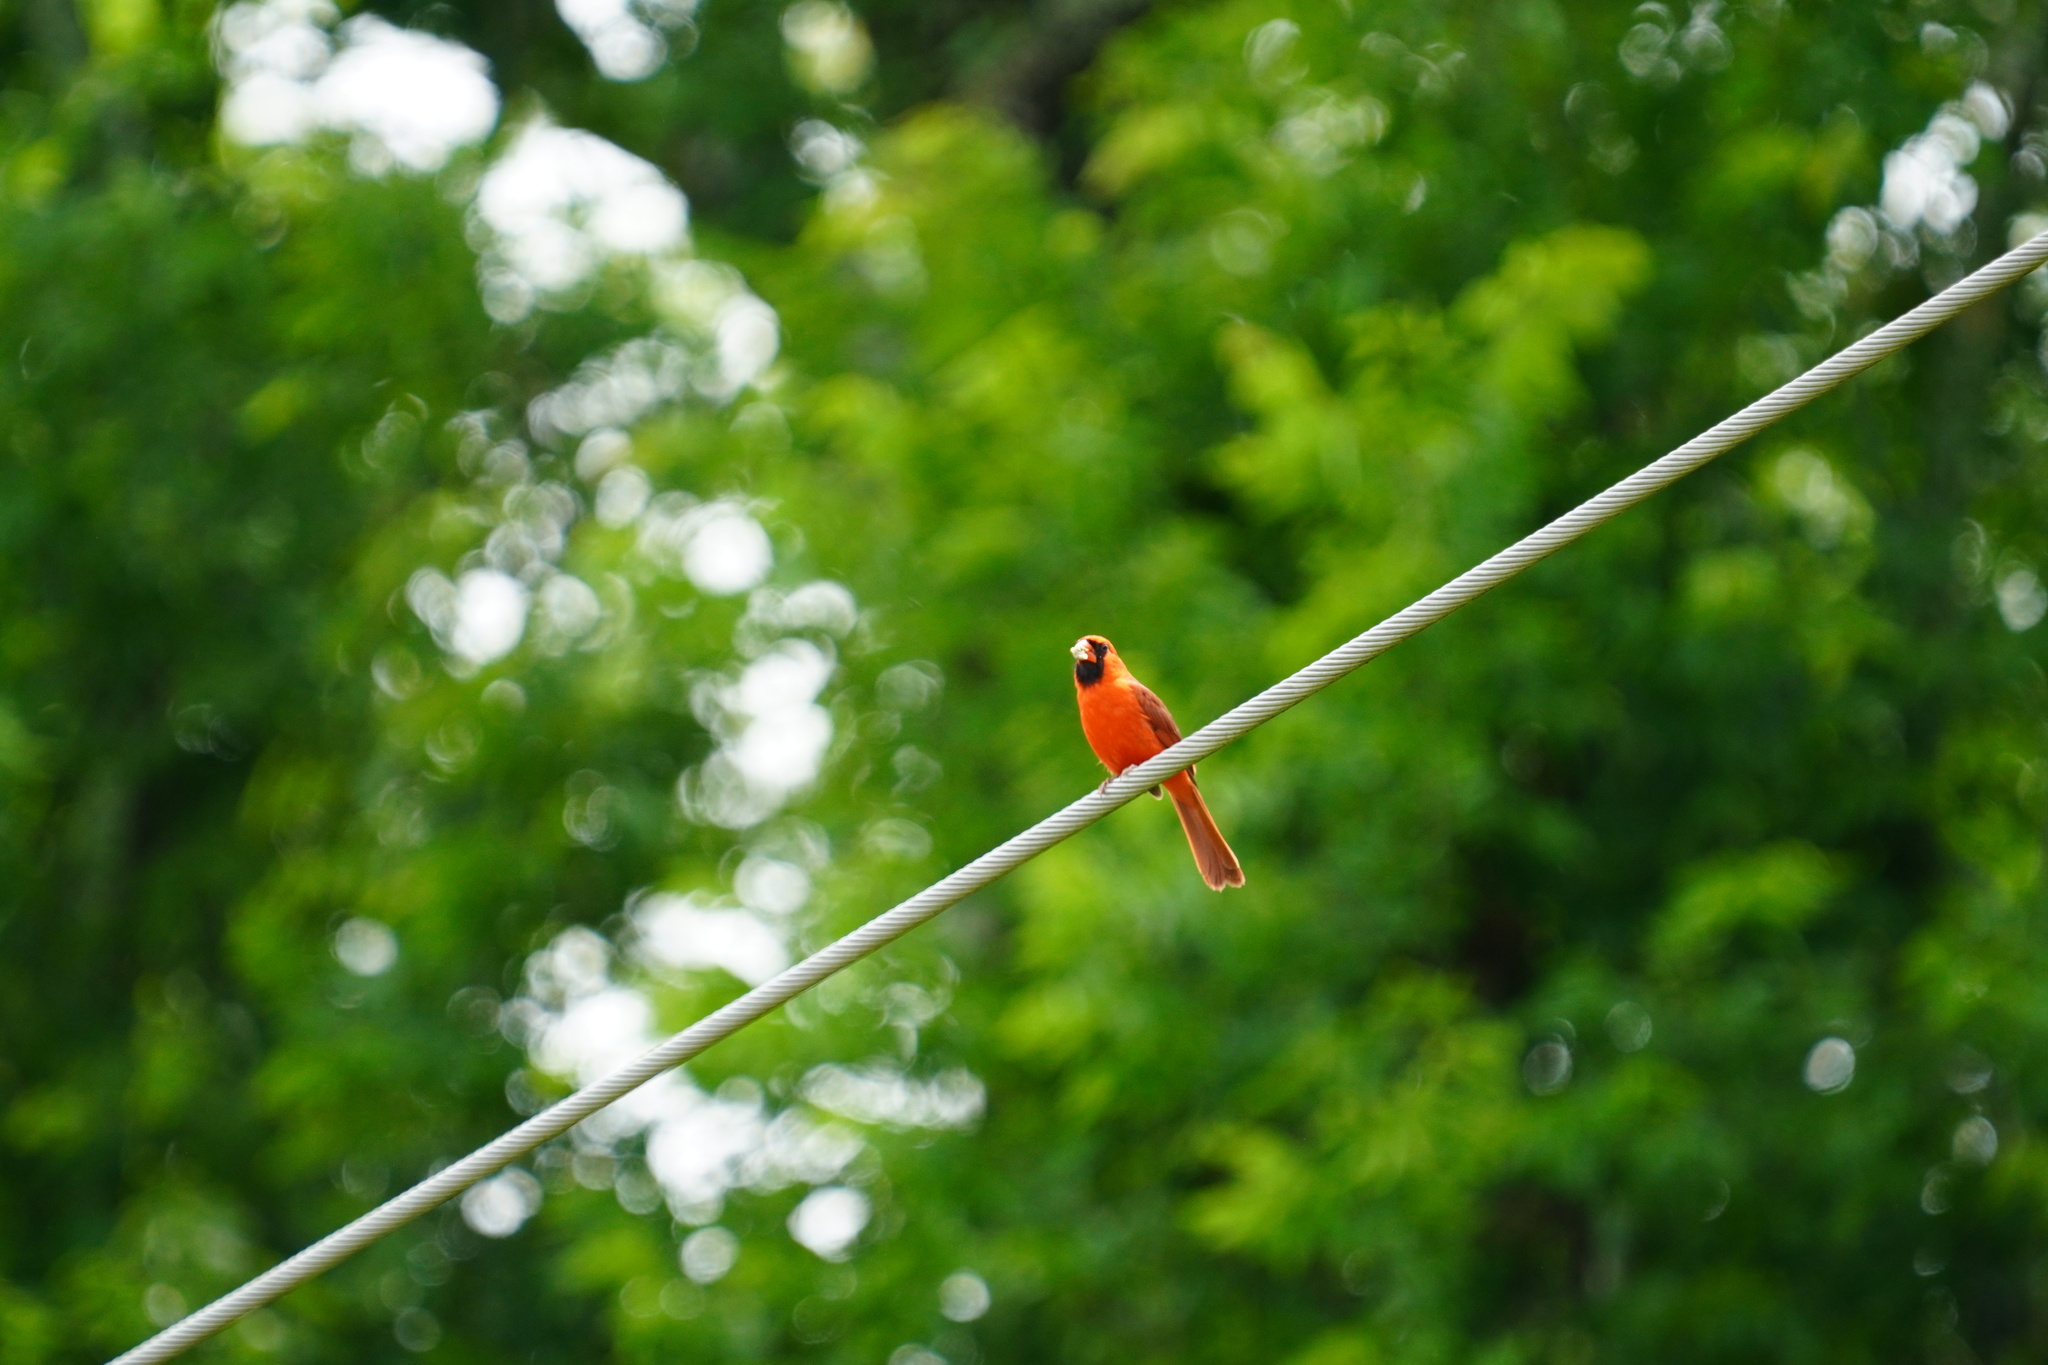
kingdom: Animalia
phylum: Chordata
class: Aves
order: Passeriformes
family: Cardinalidae
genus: Cardinalis
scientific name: Cardinalis cardinalis
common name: Northern cardinal
